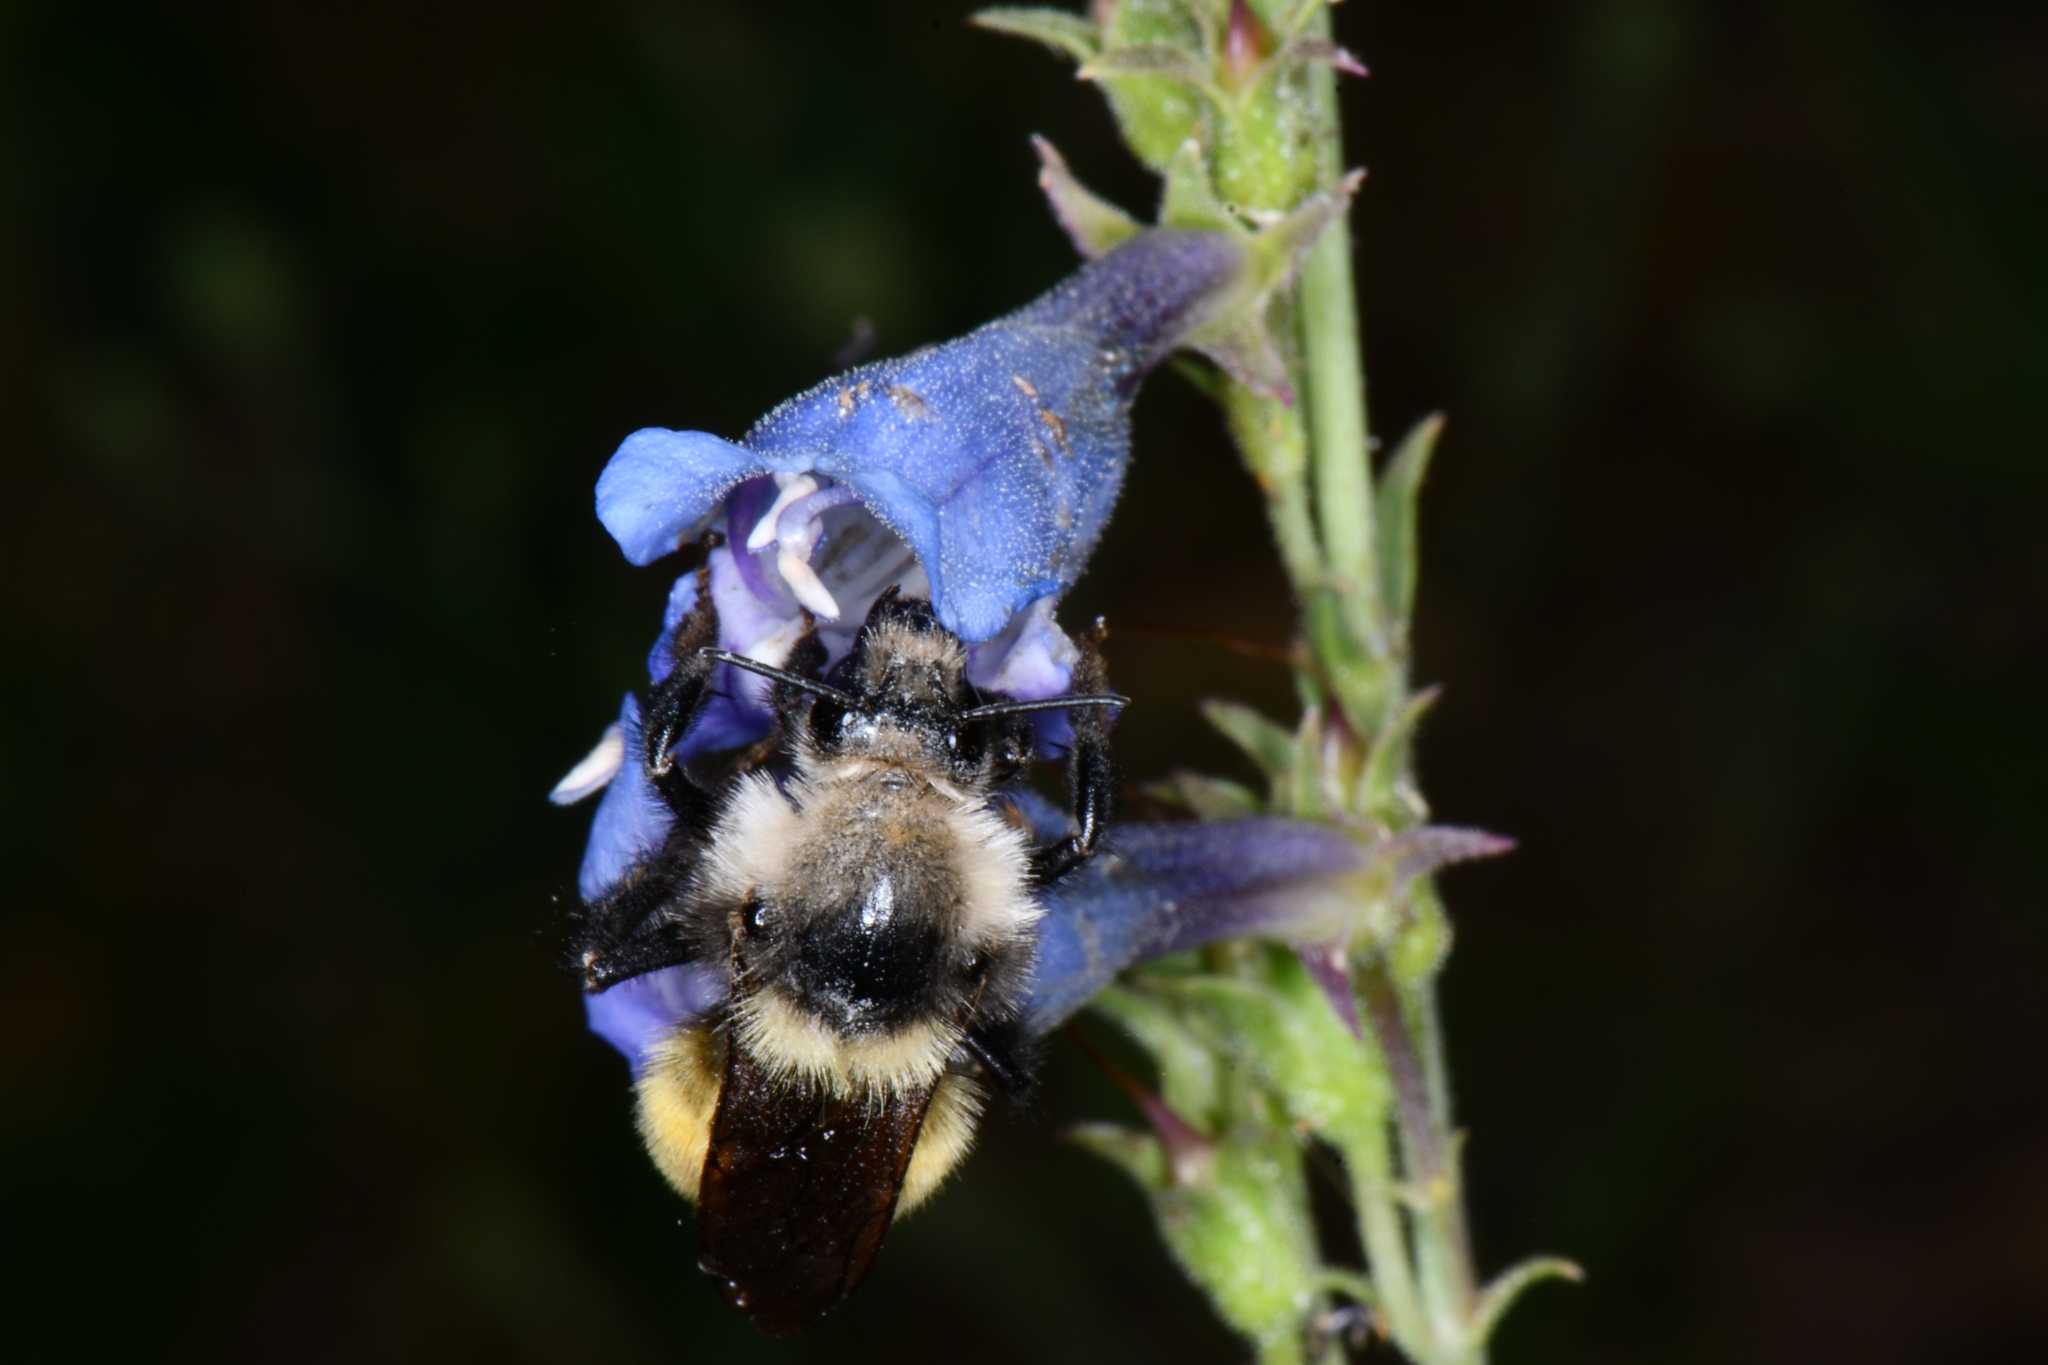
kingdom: Animalia
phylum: Arthropoda
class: Insecta
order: Hymenoptera
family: Apidae
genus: Bombus
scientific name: Bombus appositus
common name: White-shouldered bumble bee
